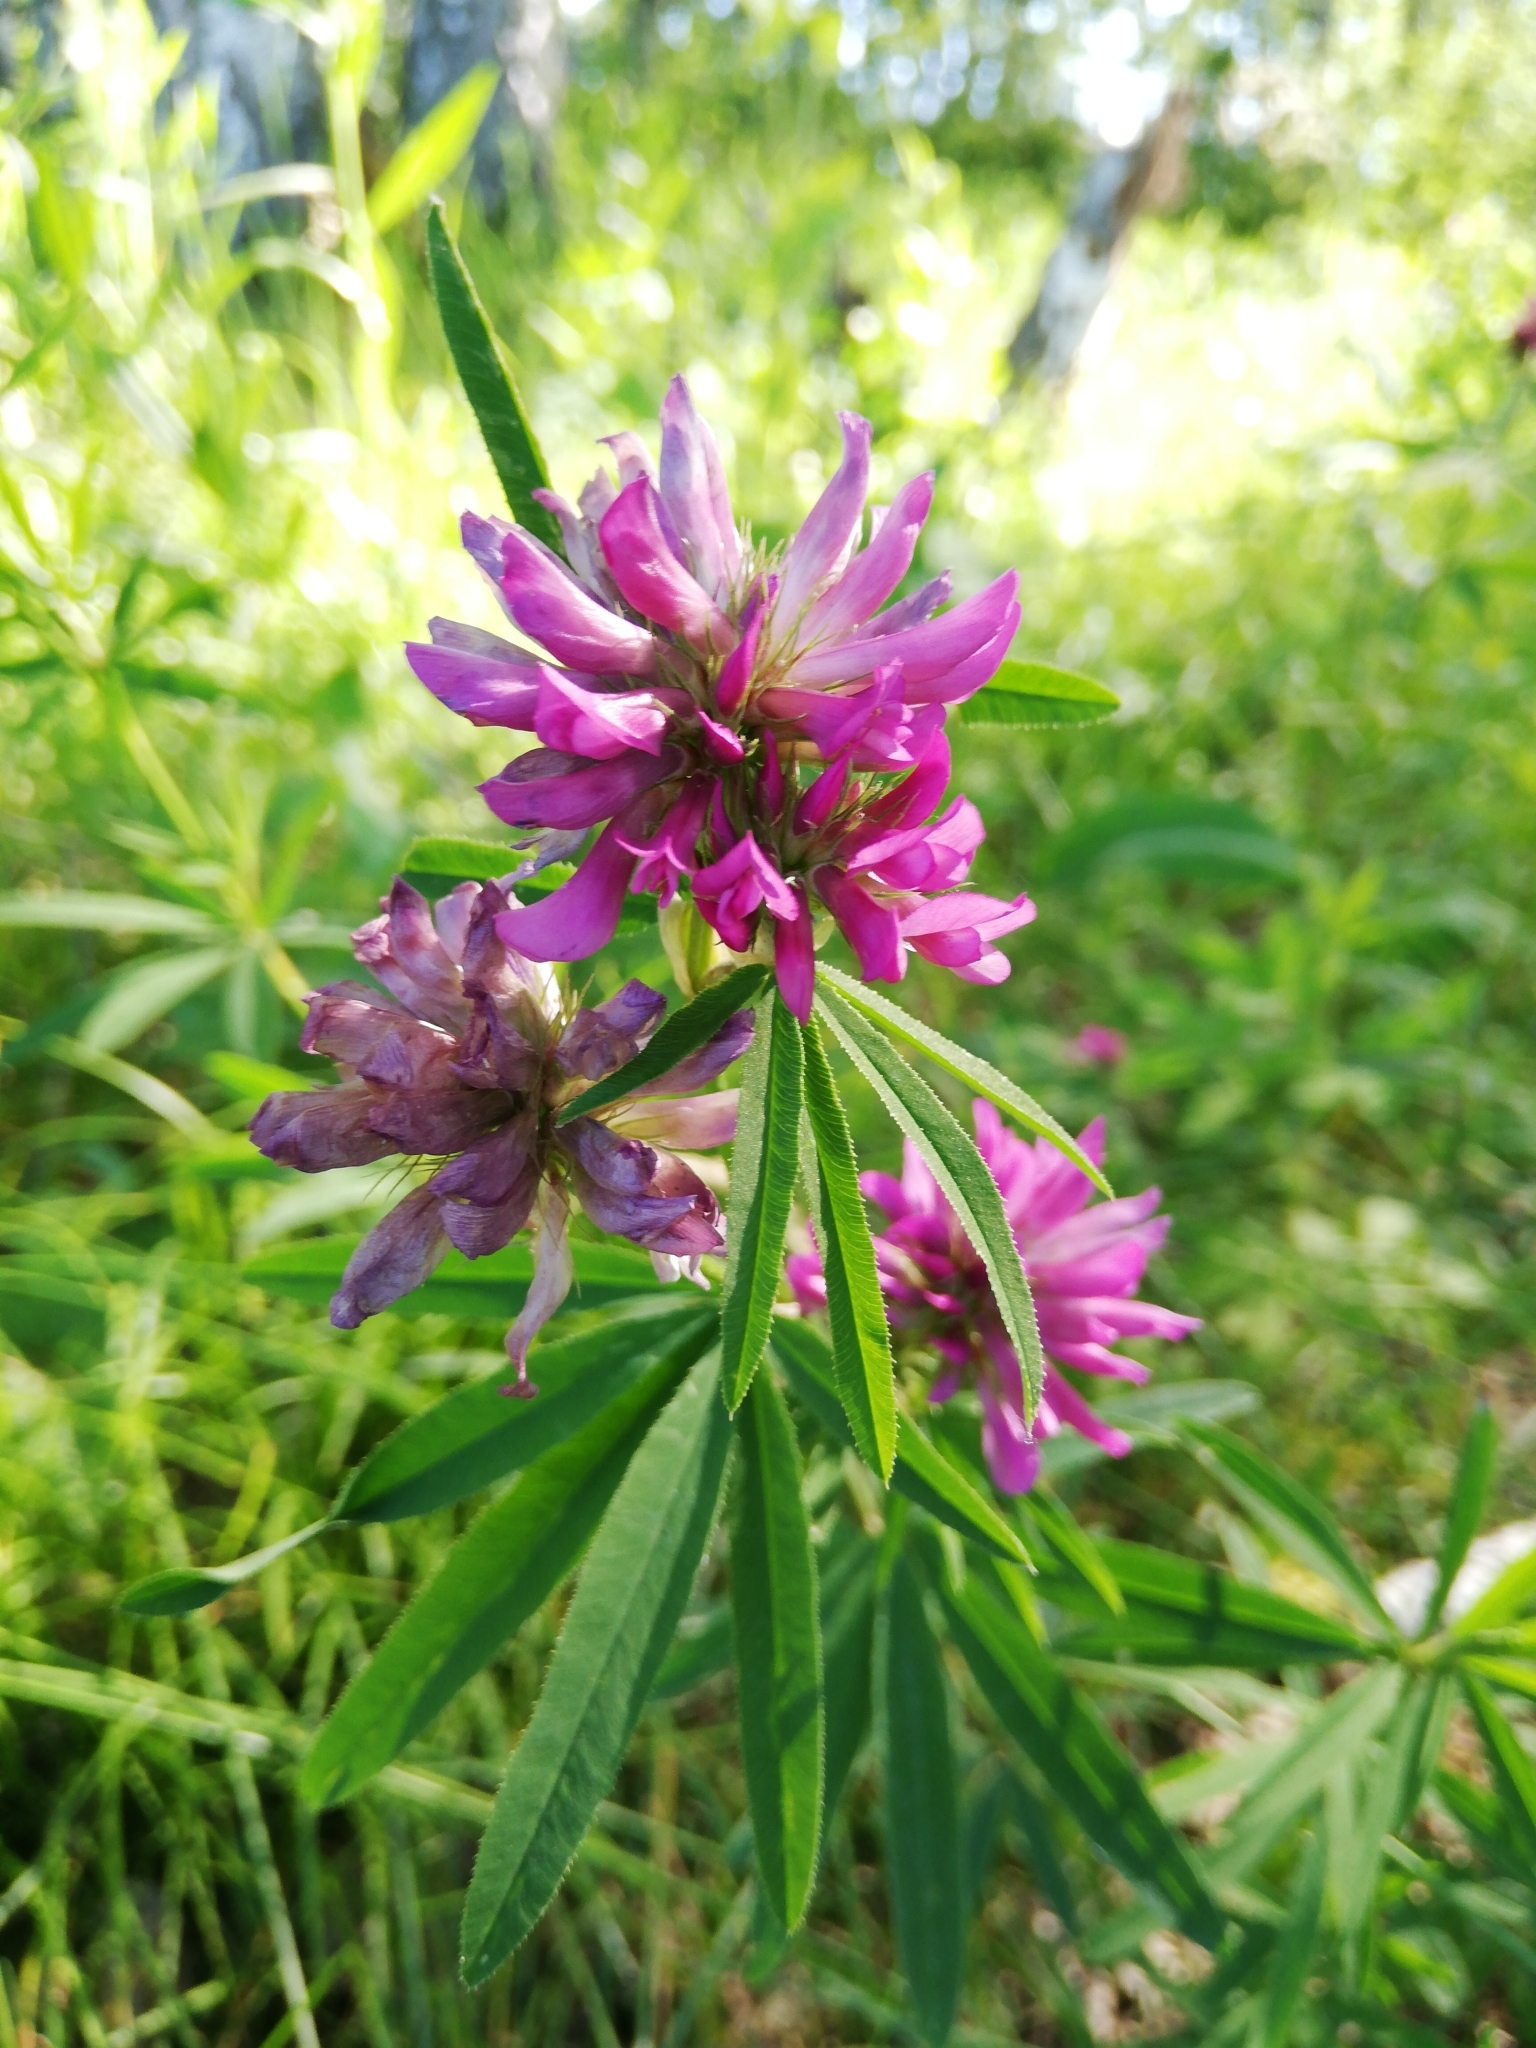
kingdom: Plantae
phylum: Tracheophyta
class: Magnoliopsida
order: Fabales
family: Fabaceae
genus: Trifolium
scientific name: Trifolium lupinaster
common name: Lupine clover
